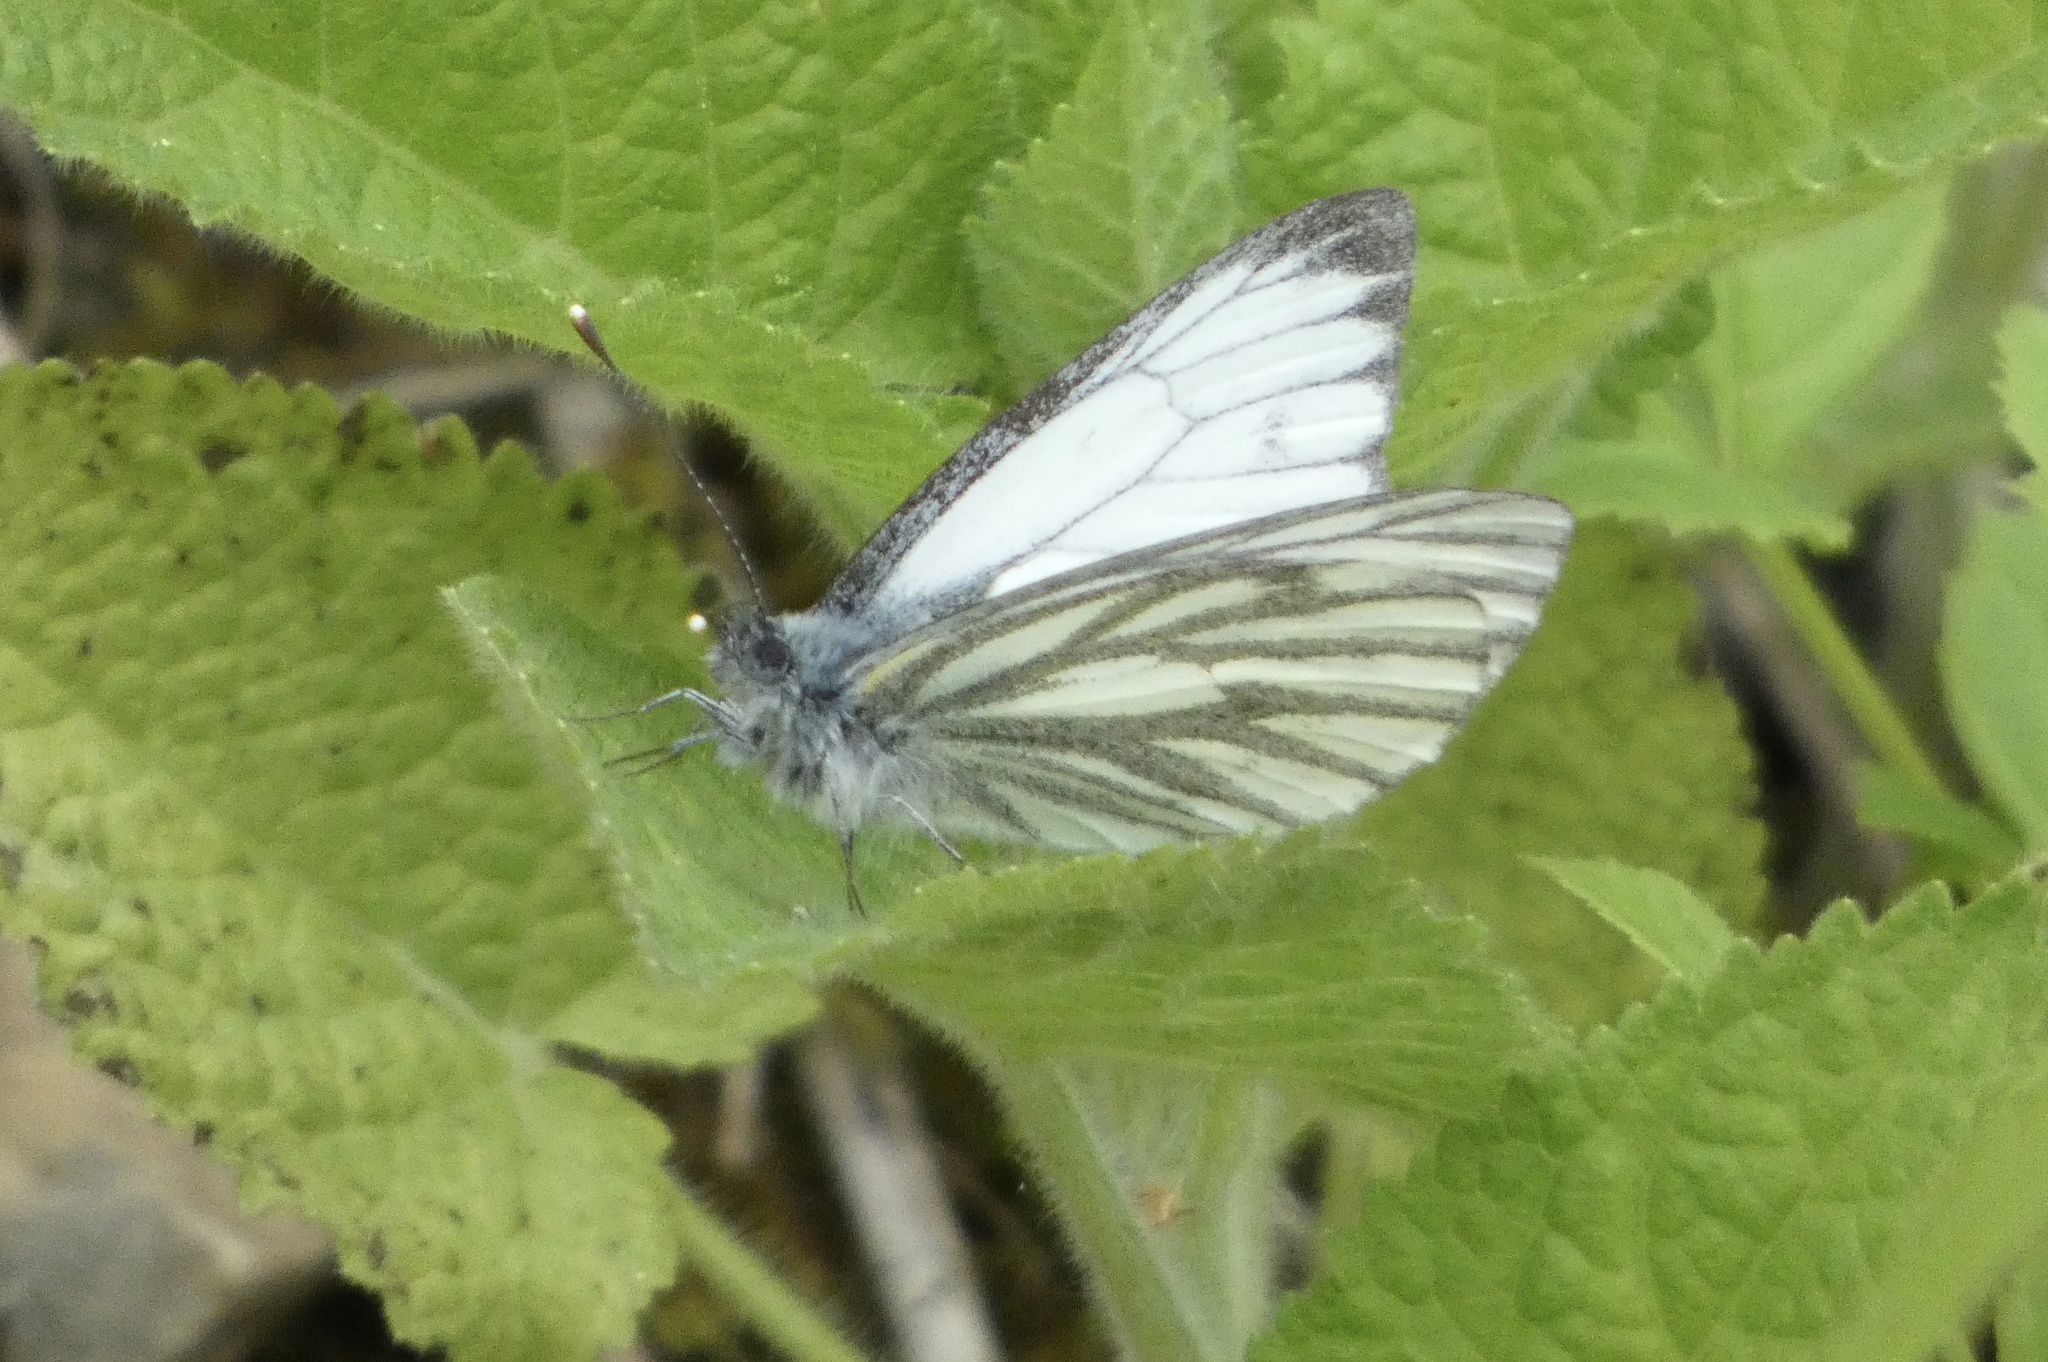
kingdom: Animalia
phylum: Arthropoda
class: Insecta
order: Lepidoptera
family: Pieridae
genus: Pieris
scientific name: Pieris napi
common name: Green-veined white
